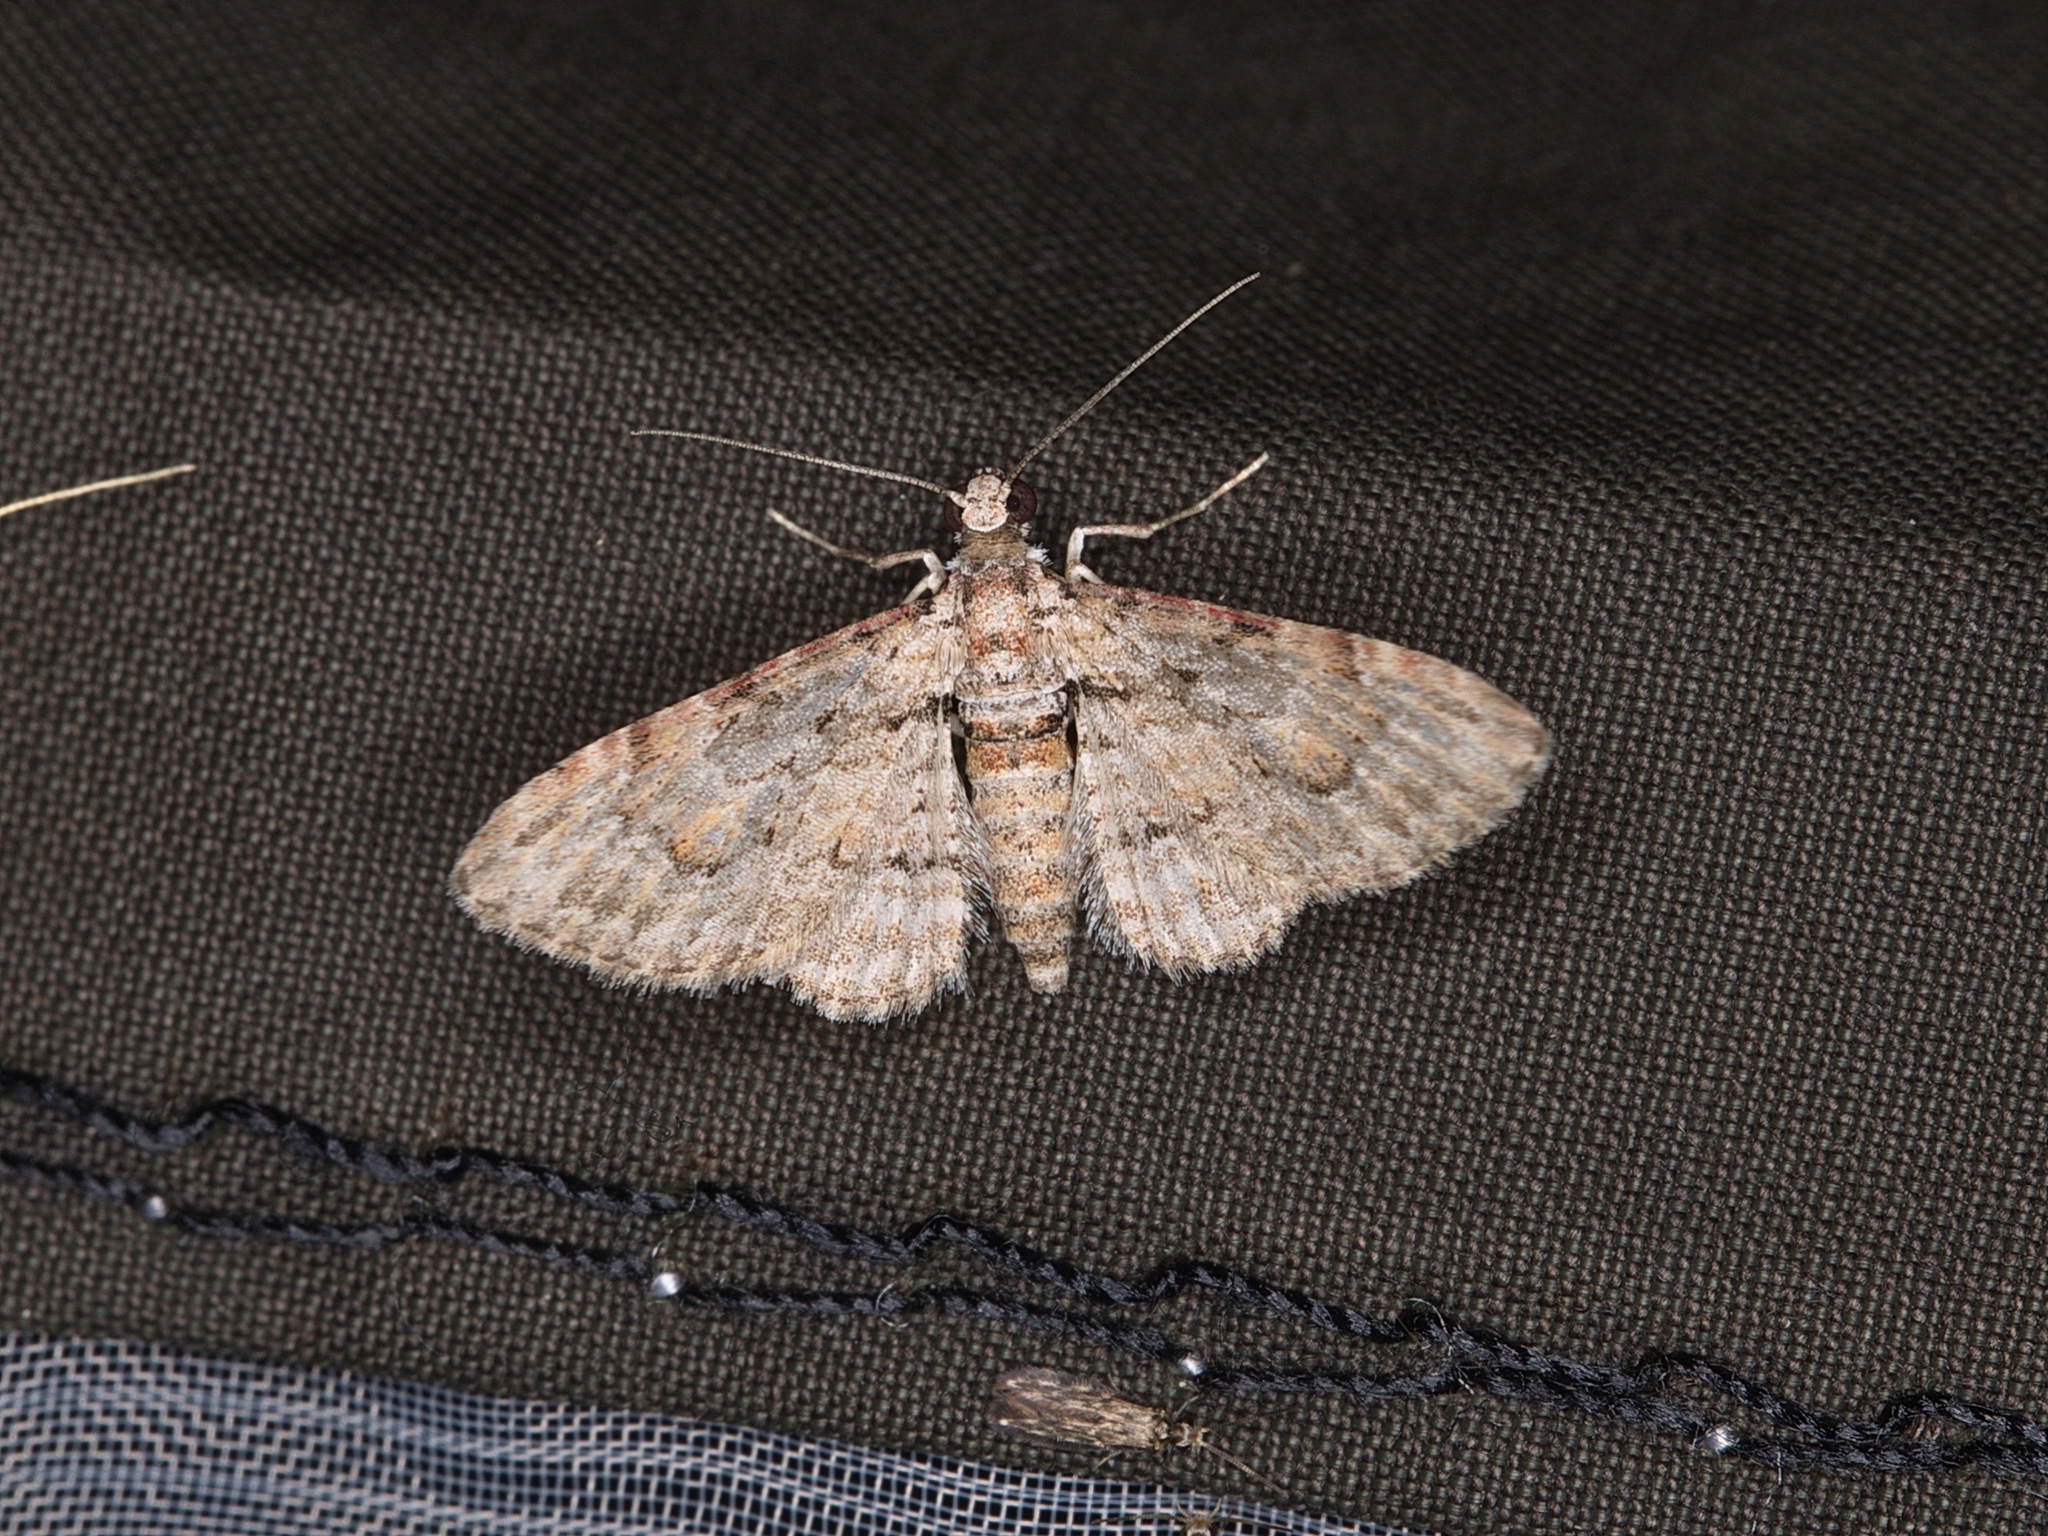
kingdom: Animalia
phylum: Arthropoda
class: Insecta
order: Lepidoptera
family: Geometridae
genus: Chloroclystis
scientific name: Chloroclystis insigillata
